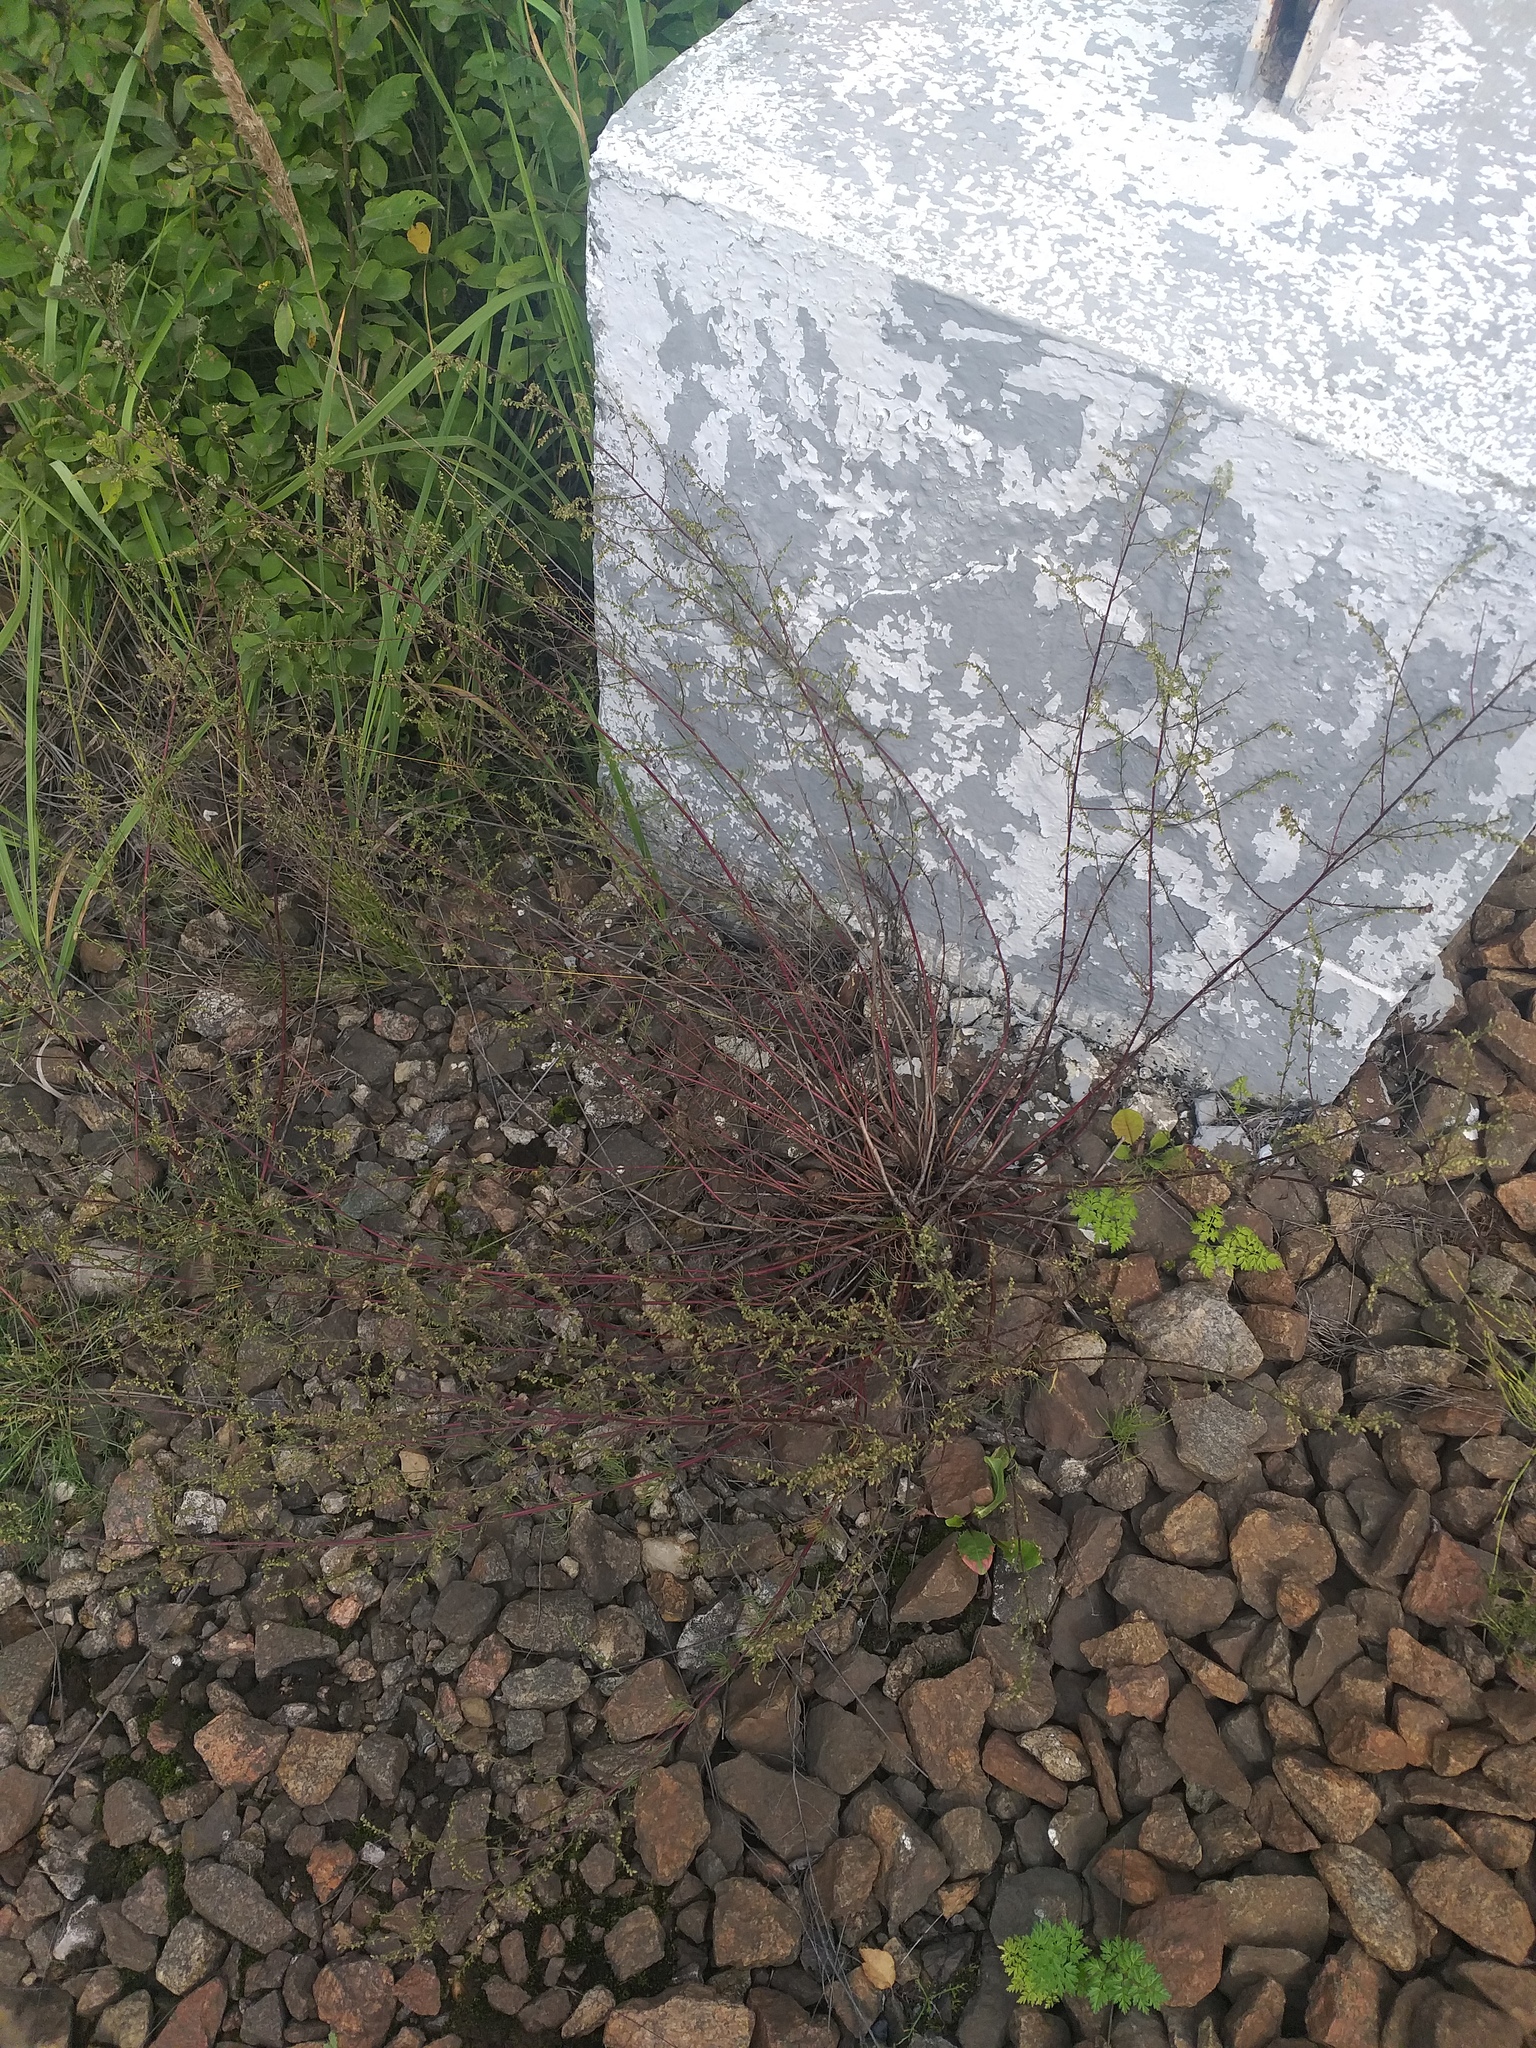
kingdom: Plantae
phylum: Tracheophyta
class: Magnoliopsida
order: Asterales
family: Asteraceae
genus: Artemisia
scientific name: Artemisia campestris
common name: Field wormwood
